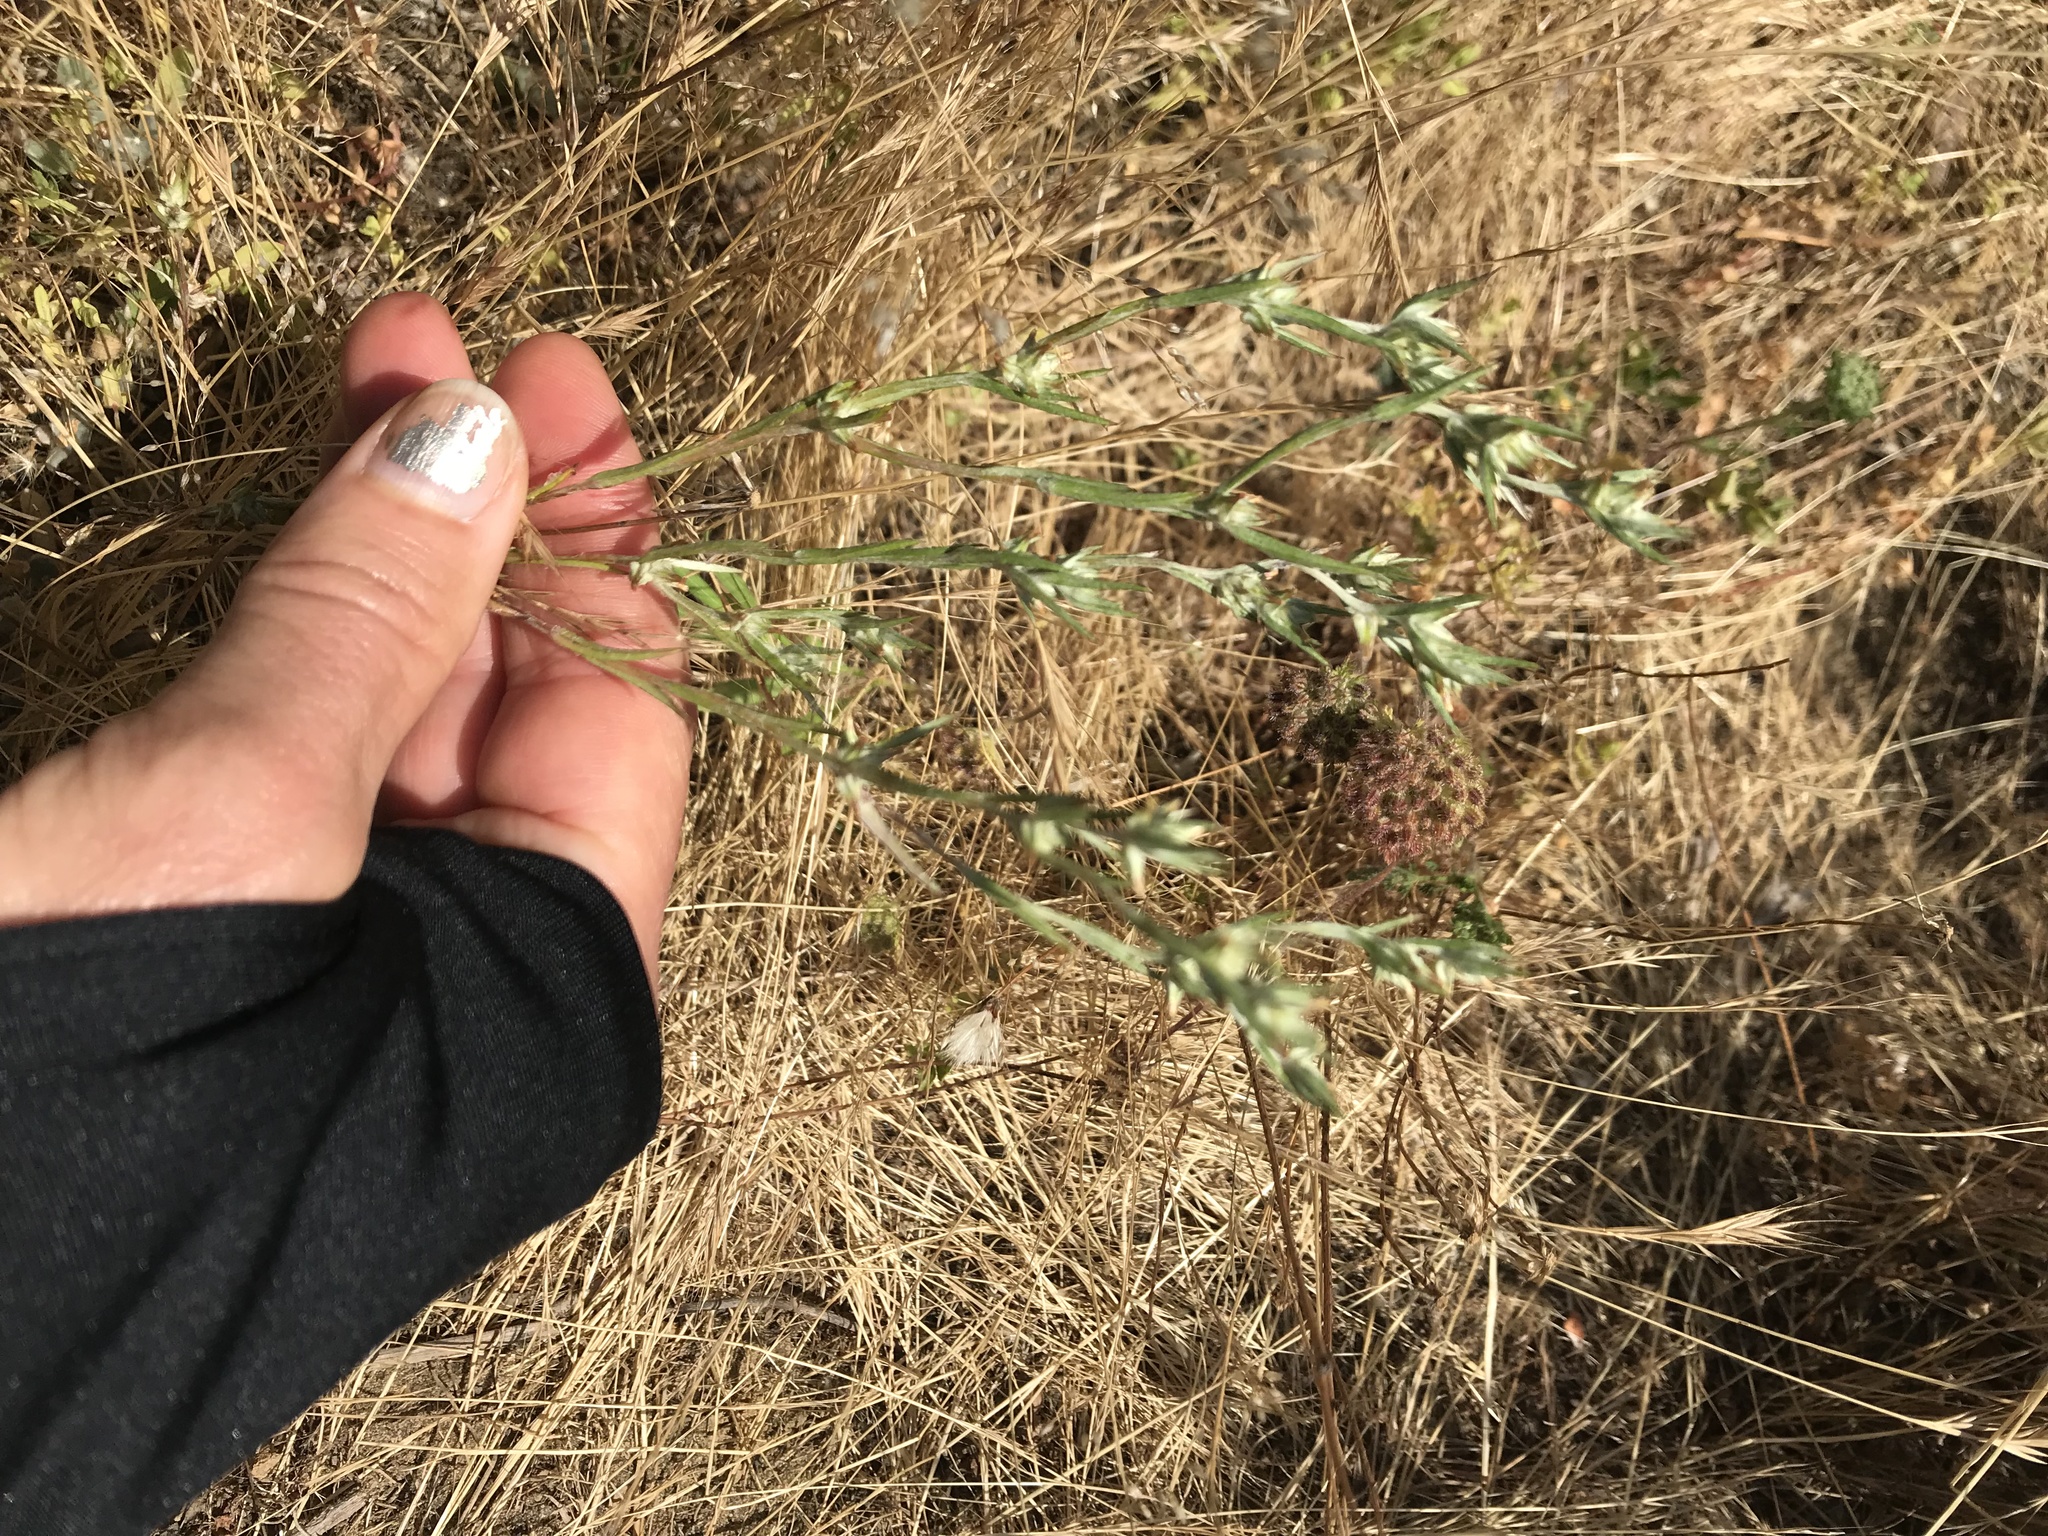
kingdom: Plantae
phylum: Tracheophyta
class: Magnoliopsida
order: Asterales
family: Asteraceae
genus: Logfia
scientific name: Logfia gallica
